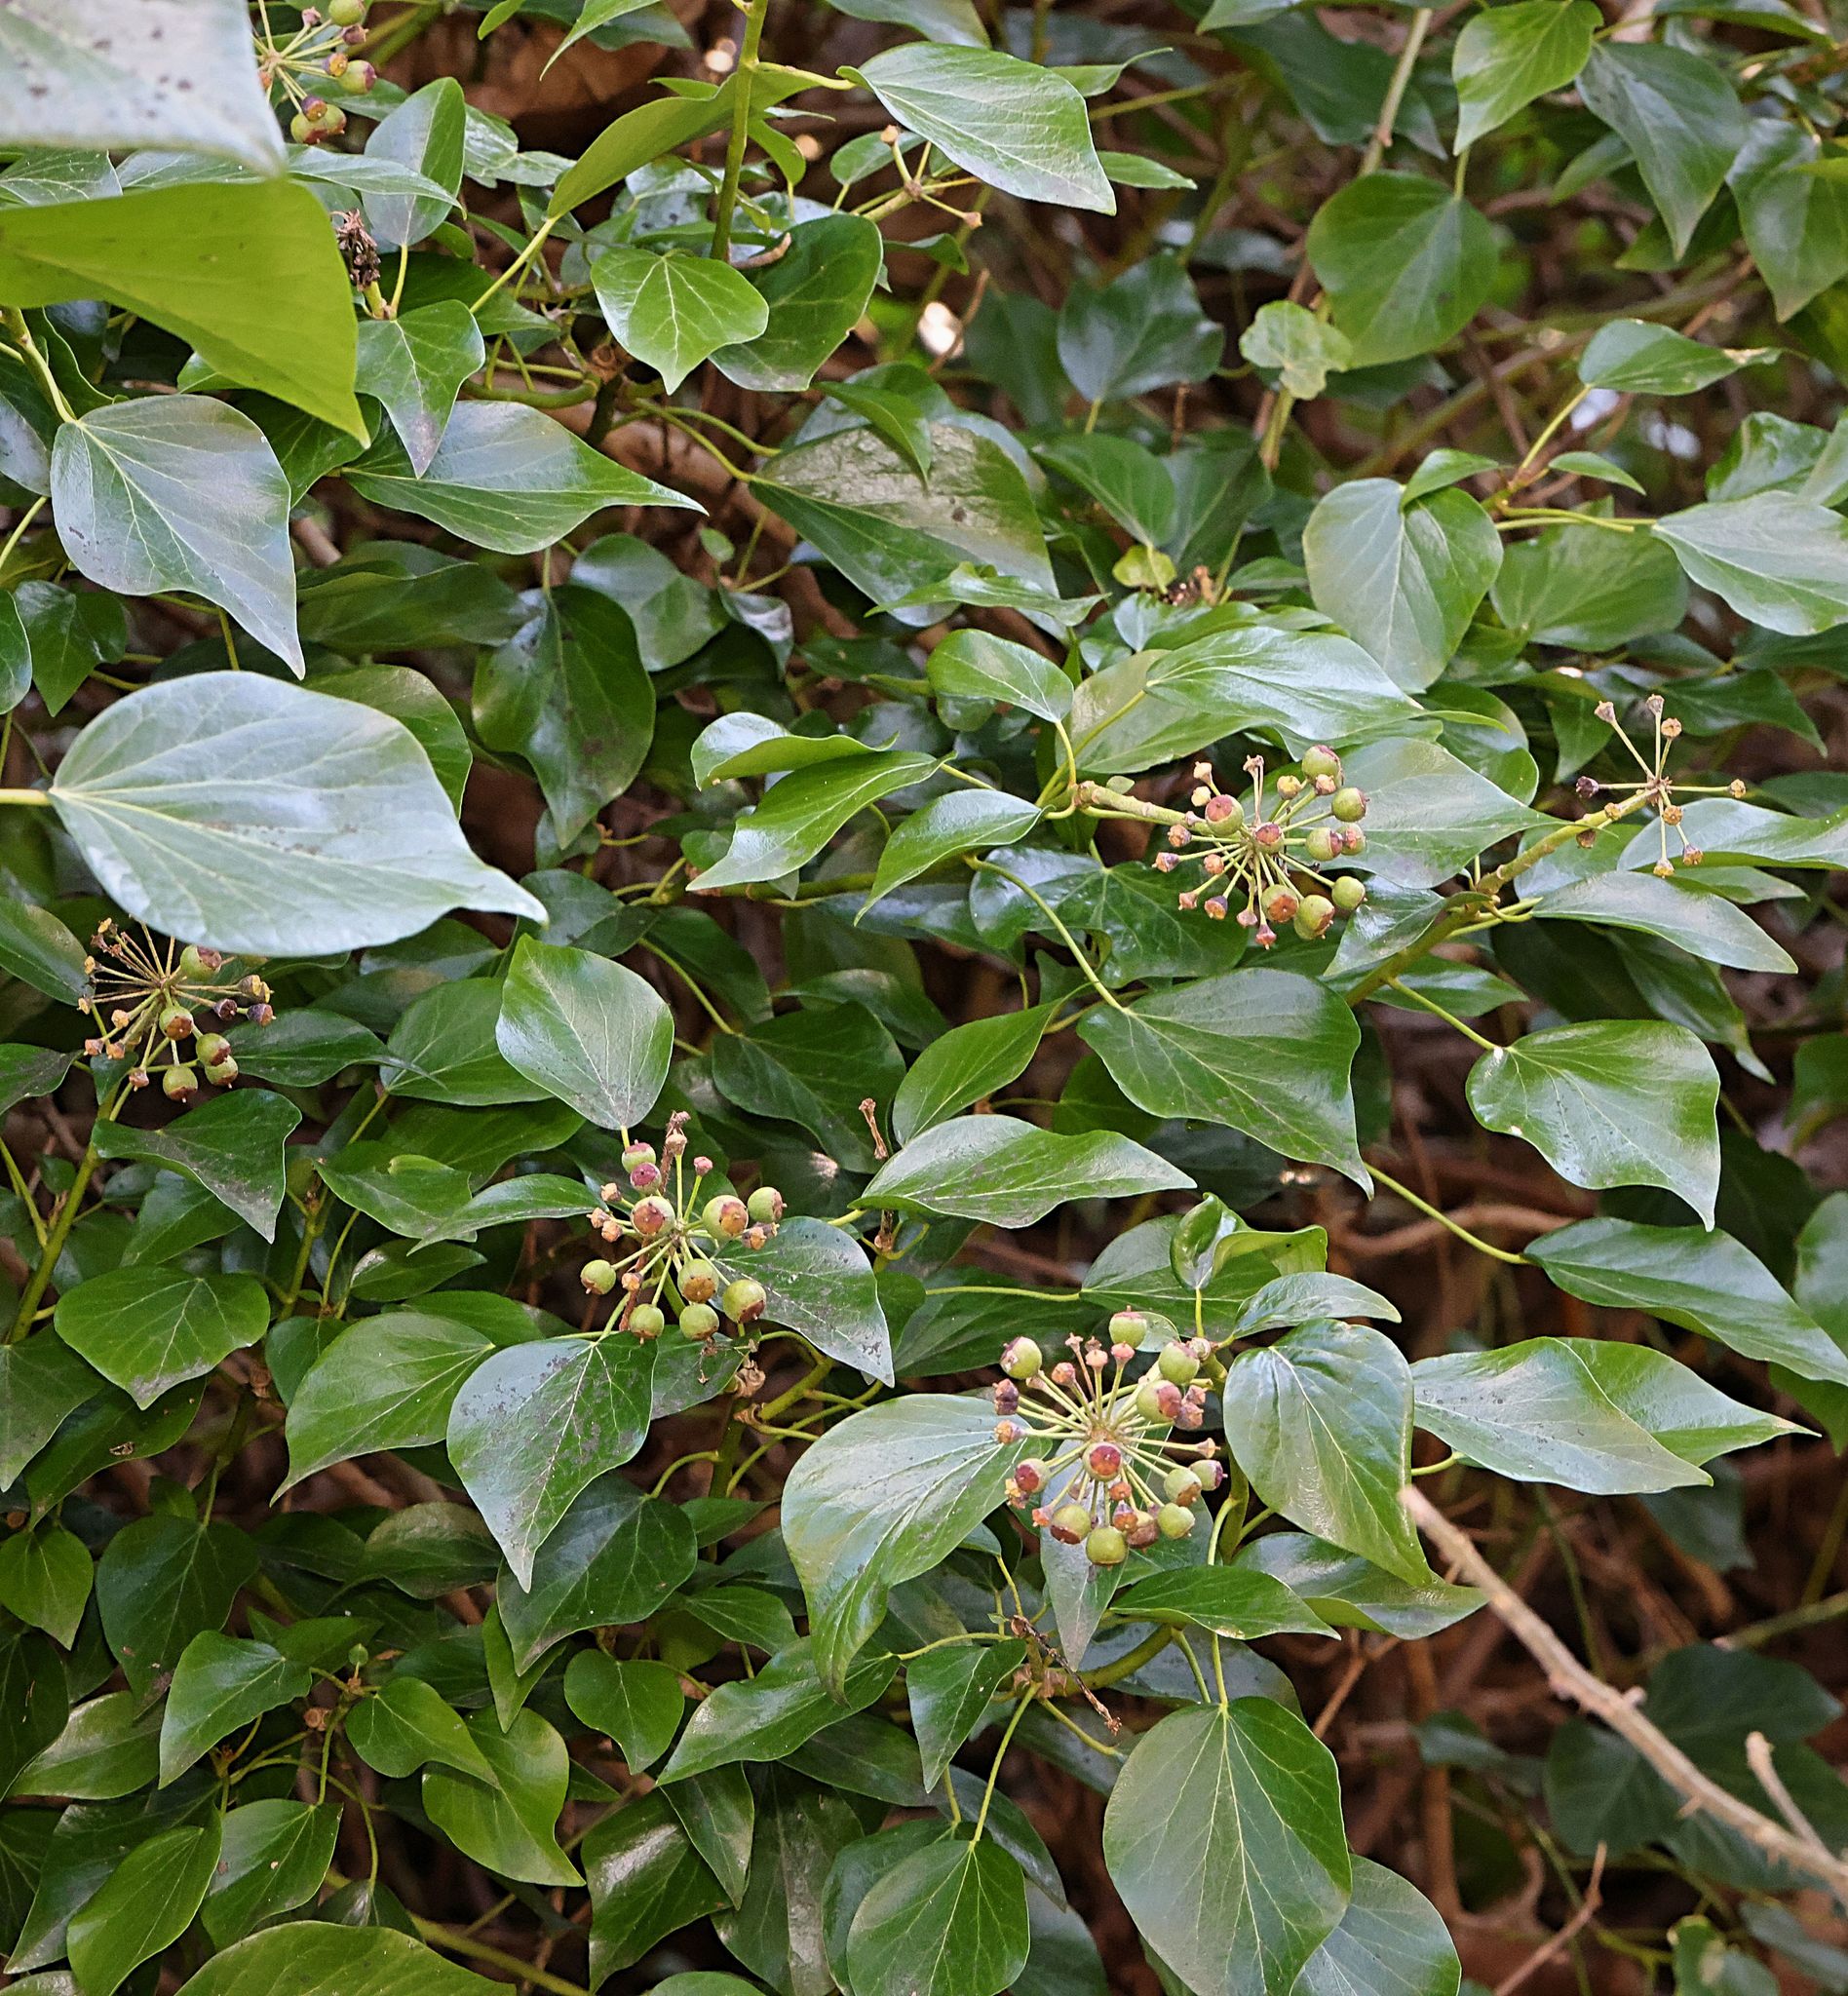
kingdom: Plantae
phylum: Tracheophyta
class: Magnoliopsida
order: Apiales
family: Araliaceae
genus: Hedera
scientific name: Hedera helix
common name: Ivy
